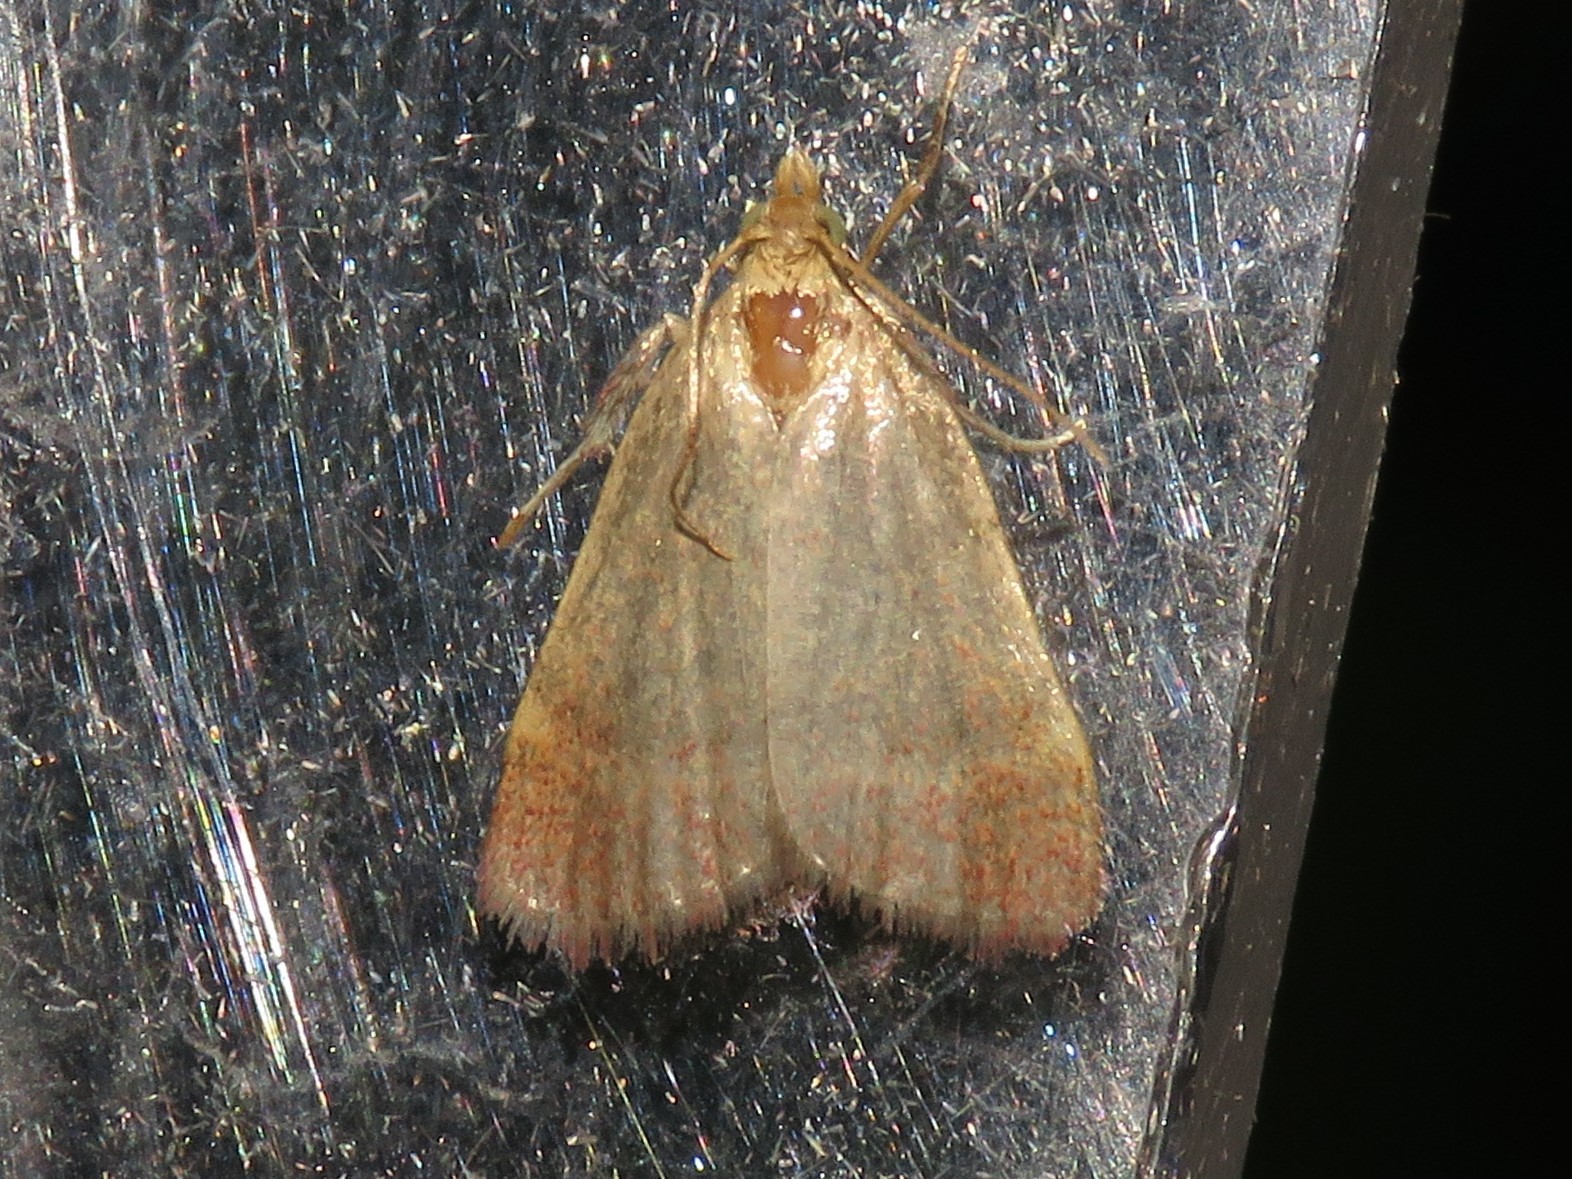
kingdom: Animalia
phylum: Arthropoda
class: Insecta
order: Lepidoptera
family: Pyralidae
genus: Condylolomia
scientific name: Condylolomia participialis
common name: Drab condylolomia moth
